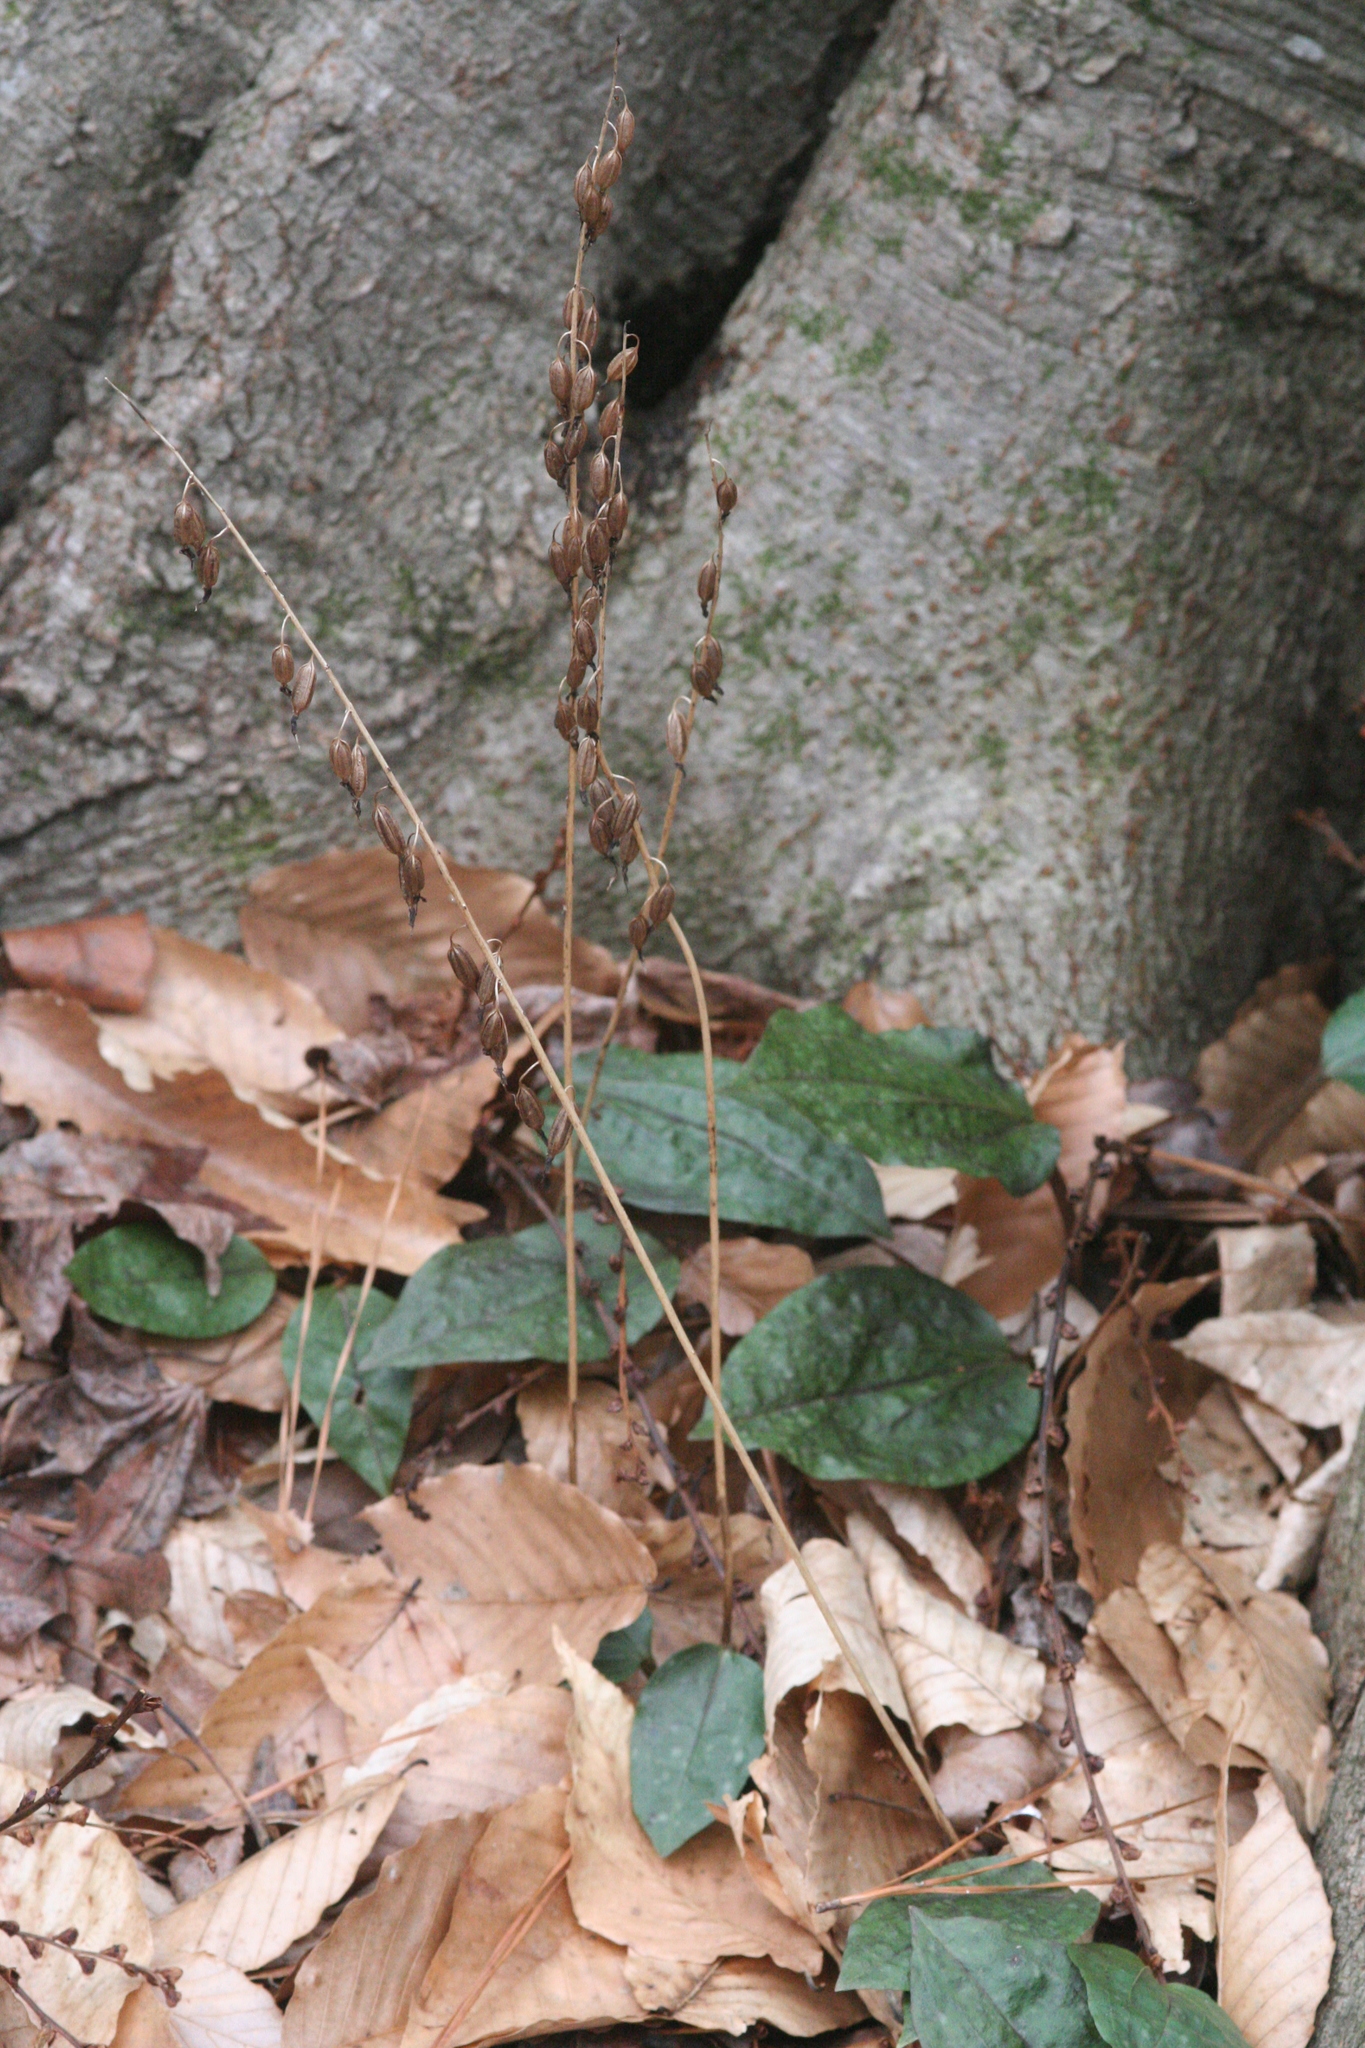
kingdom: Plantae
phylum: Tracheophyta
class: Liliopsida
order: Asparagales
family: Orchidaceae
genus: Tipularia
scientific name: Tipularia discolor
